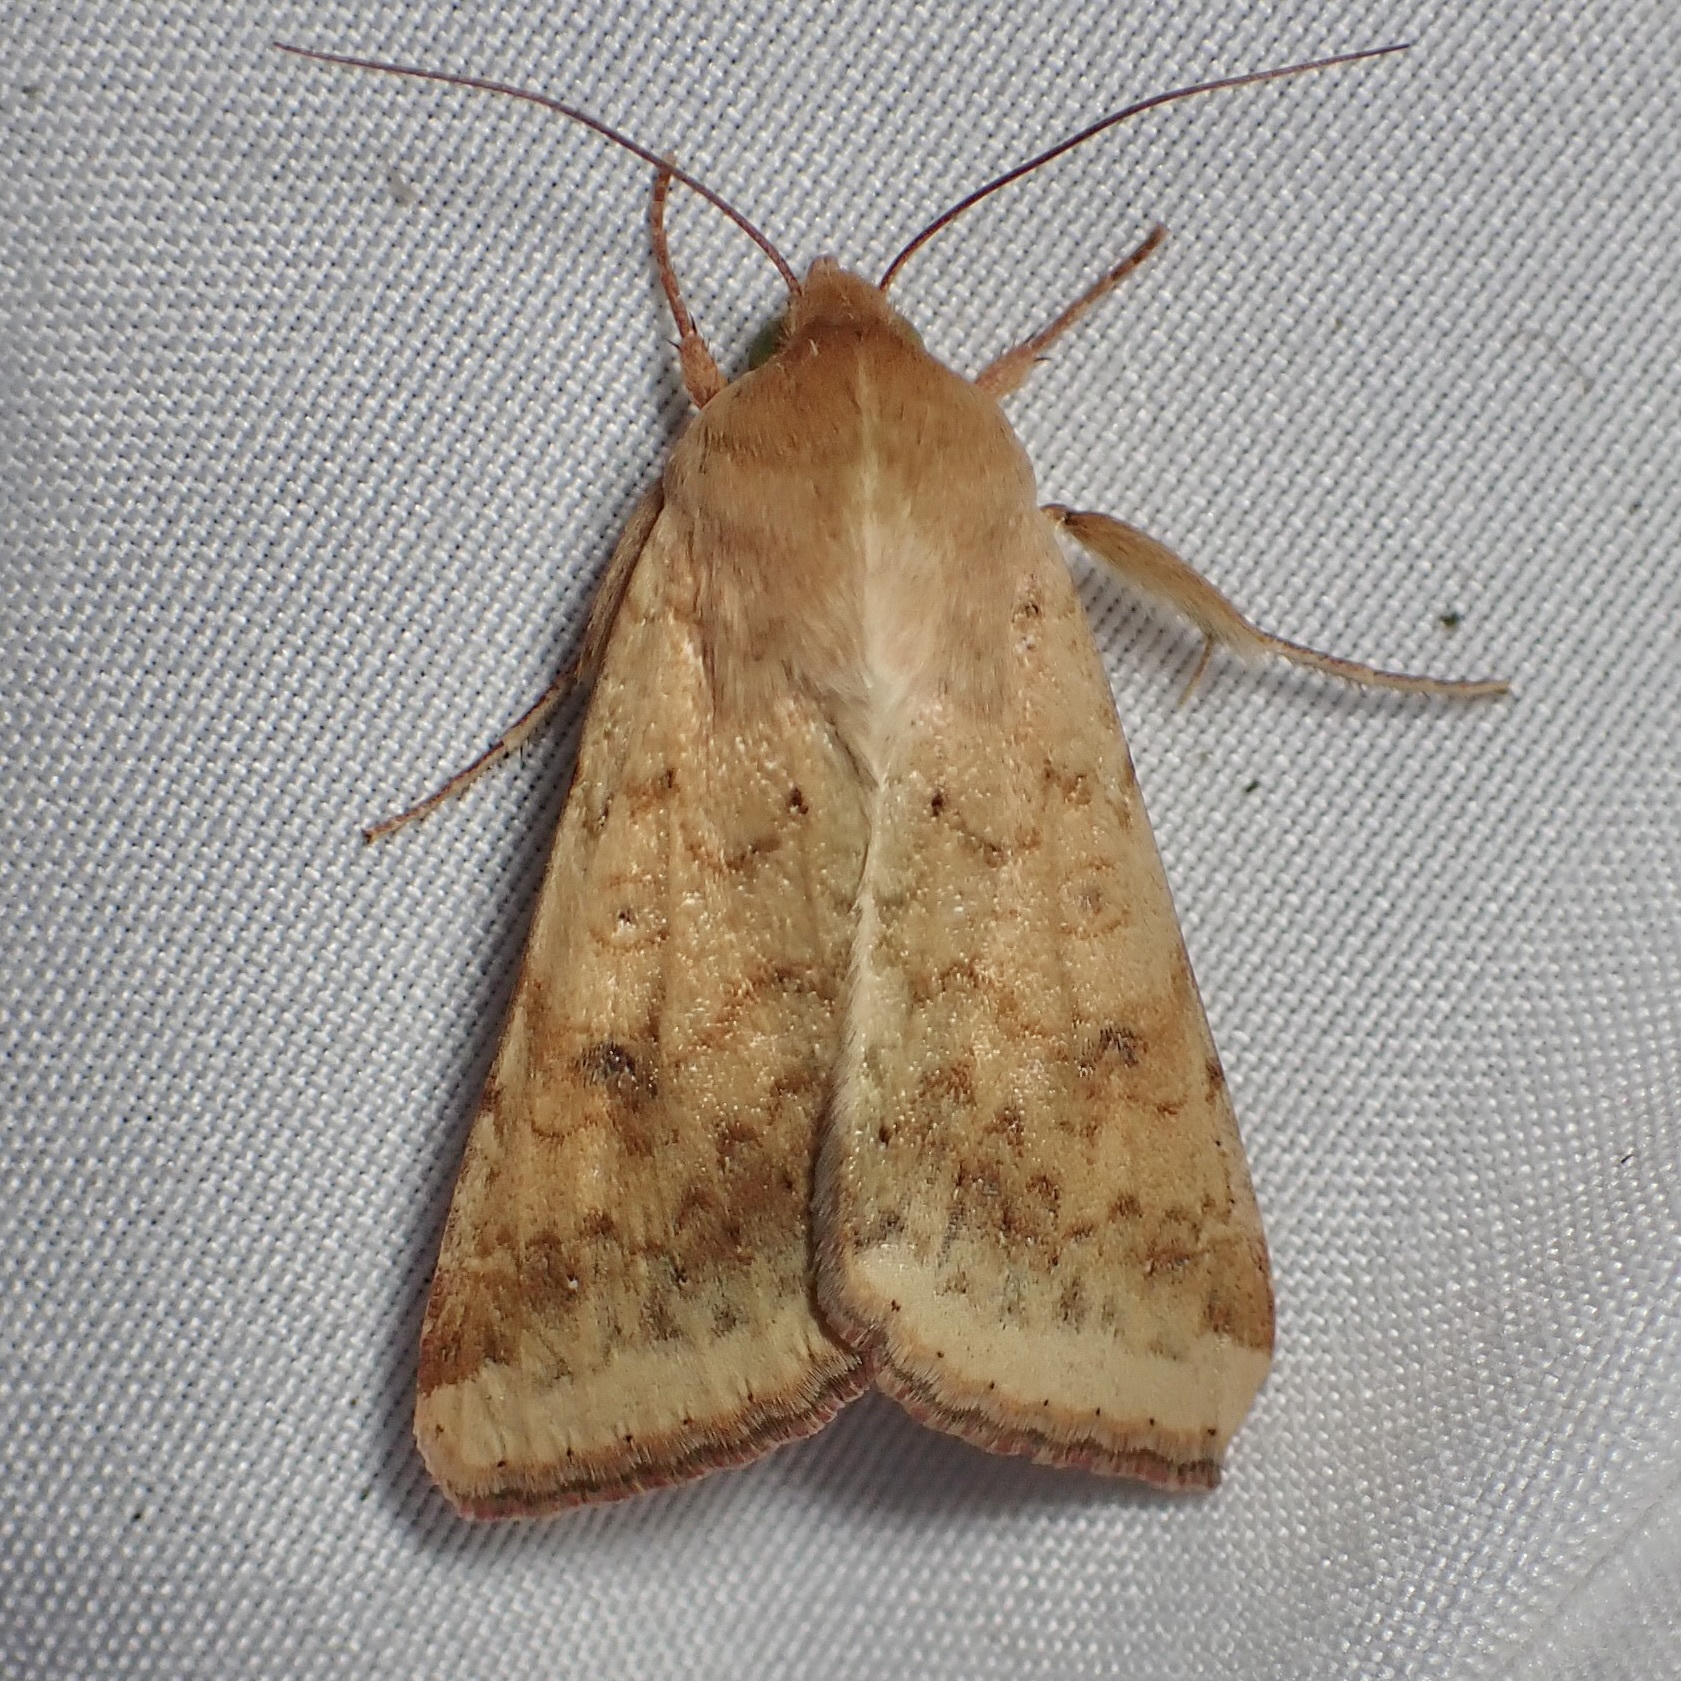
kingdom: Animalia
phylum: Arthropoda
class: Insecta
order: Lepidoptera
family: Noctuidae
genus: Helicoverpa
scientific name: Helicoverpa zea
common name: Bollworm
